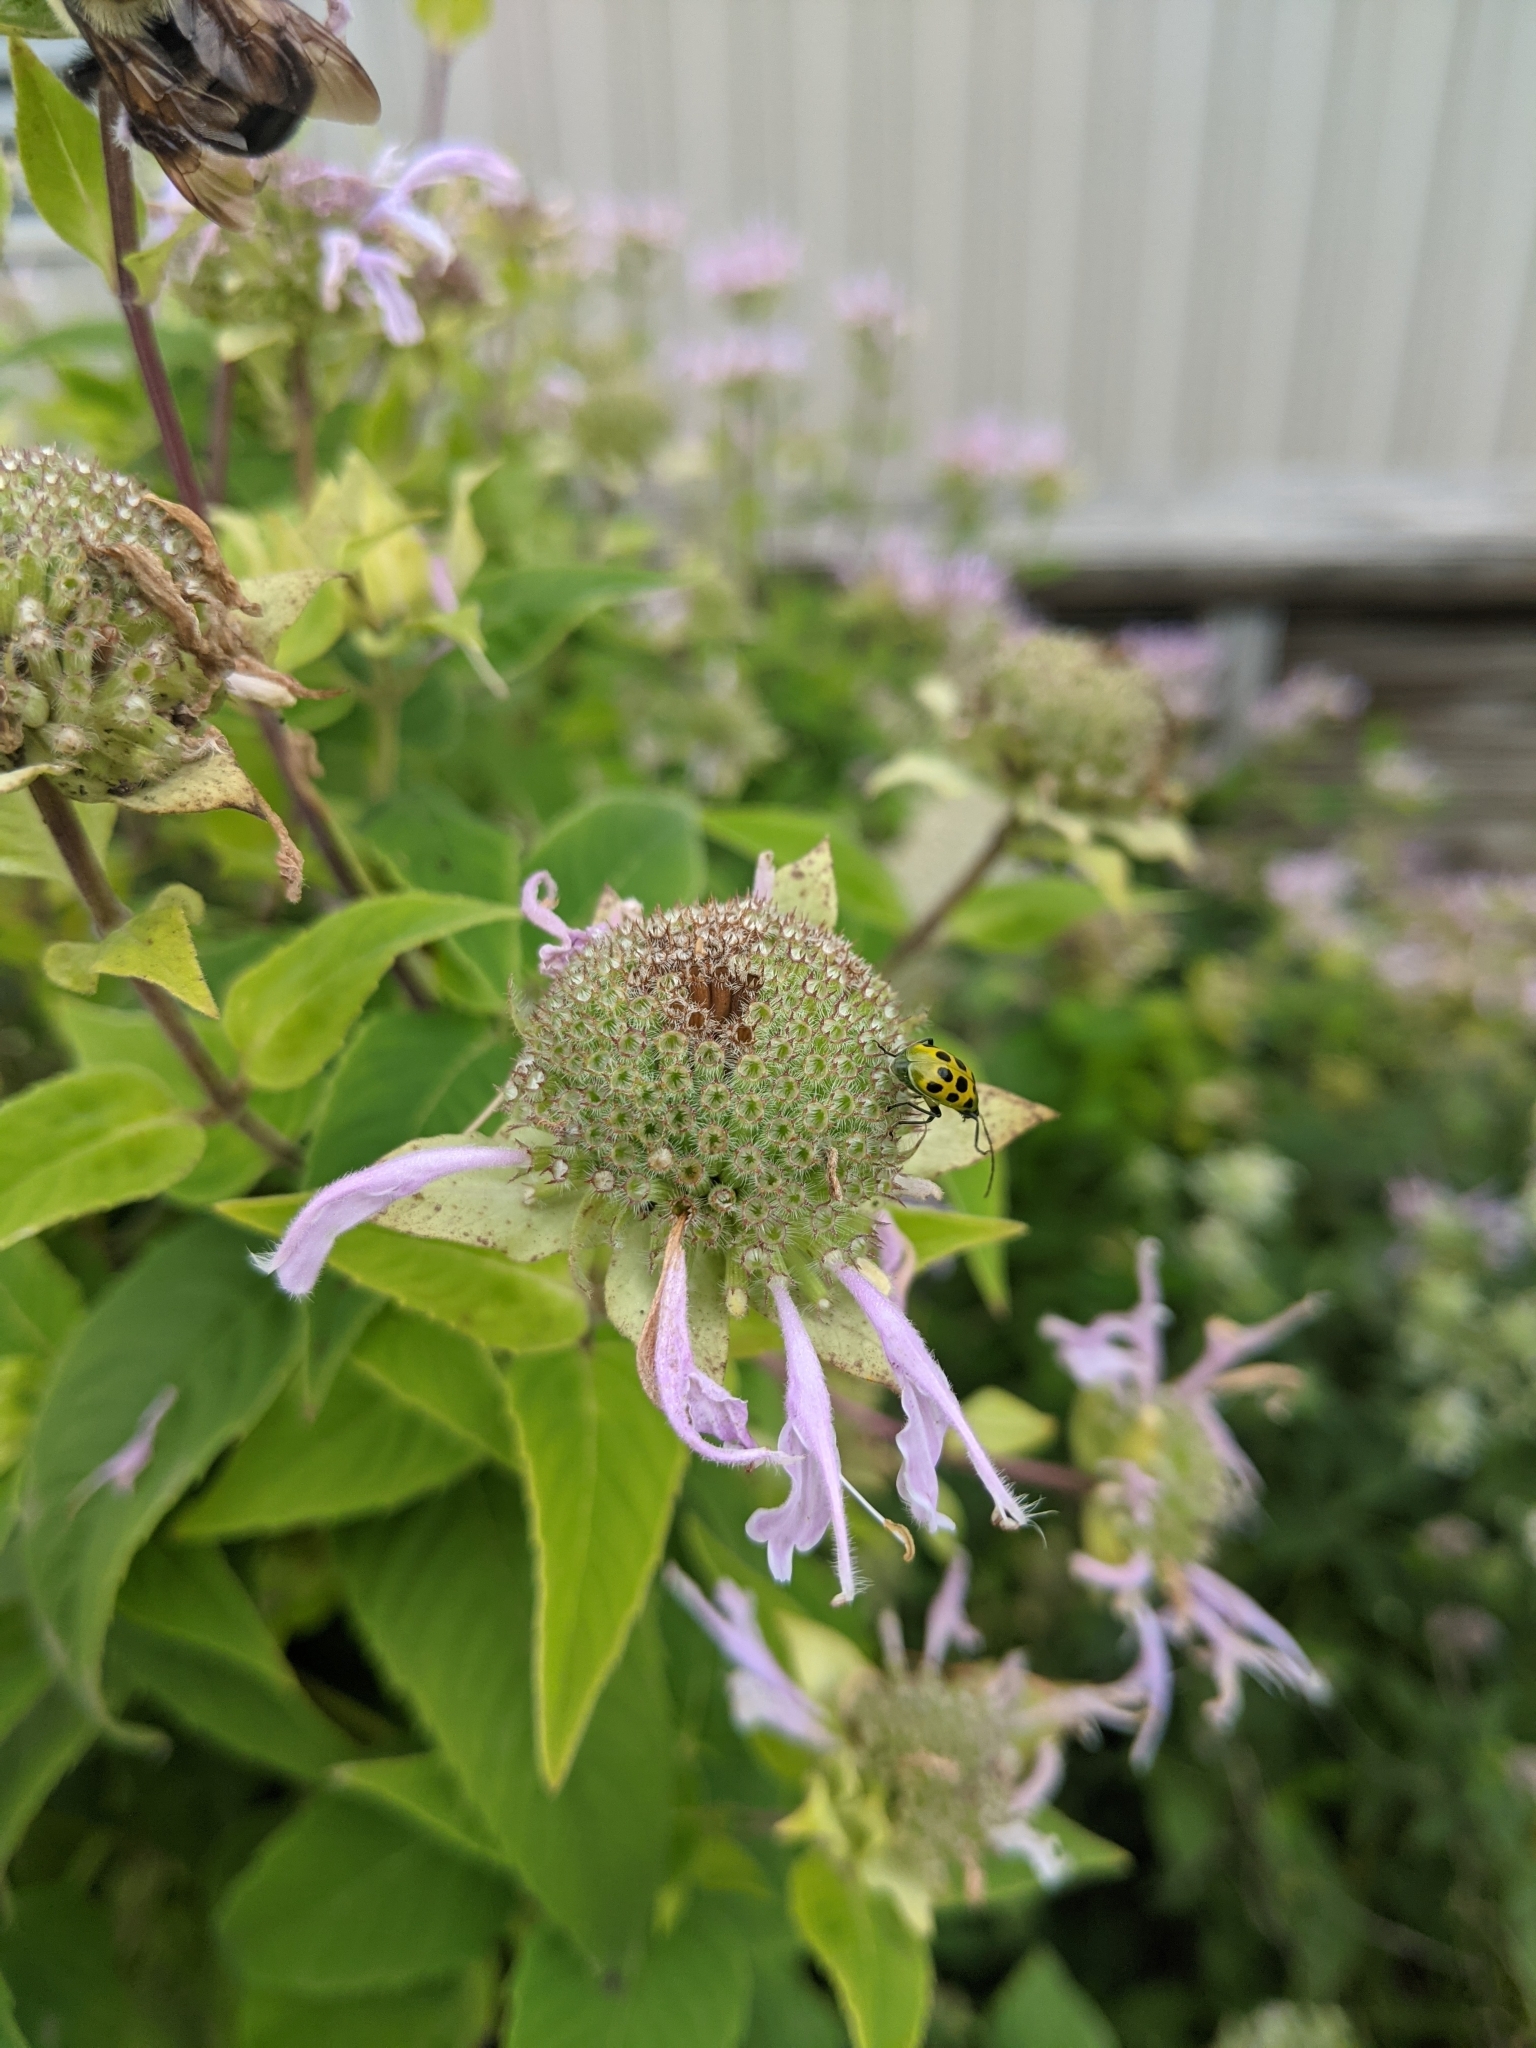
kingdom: Animalia
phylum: Arthropoda
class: Insecta
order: Coleoptera
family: Chrysomelidae
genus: Diabrotica
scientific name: Diabrotica undecimpunctata
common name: Spotted cucumber beetle
